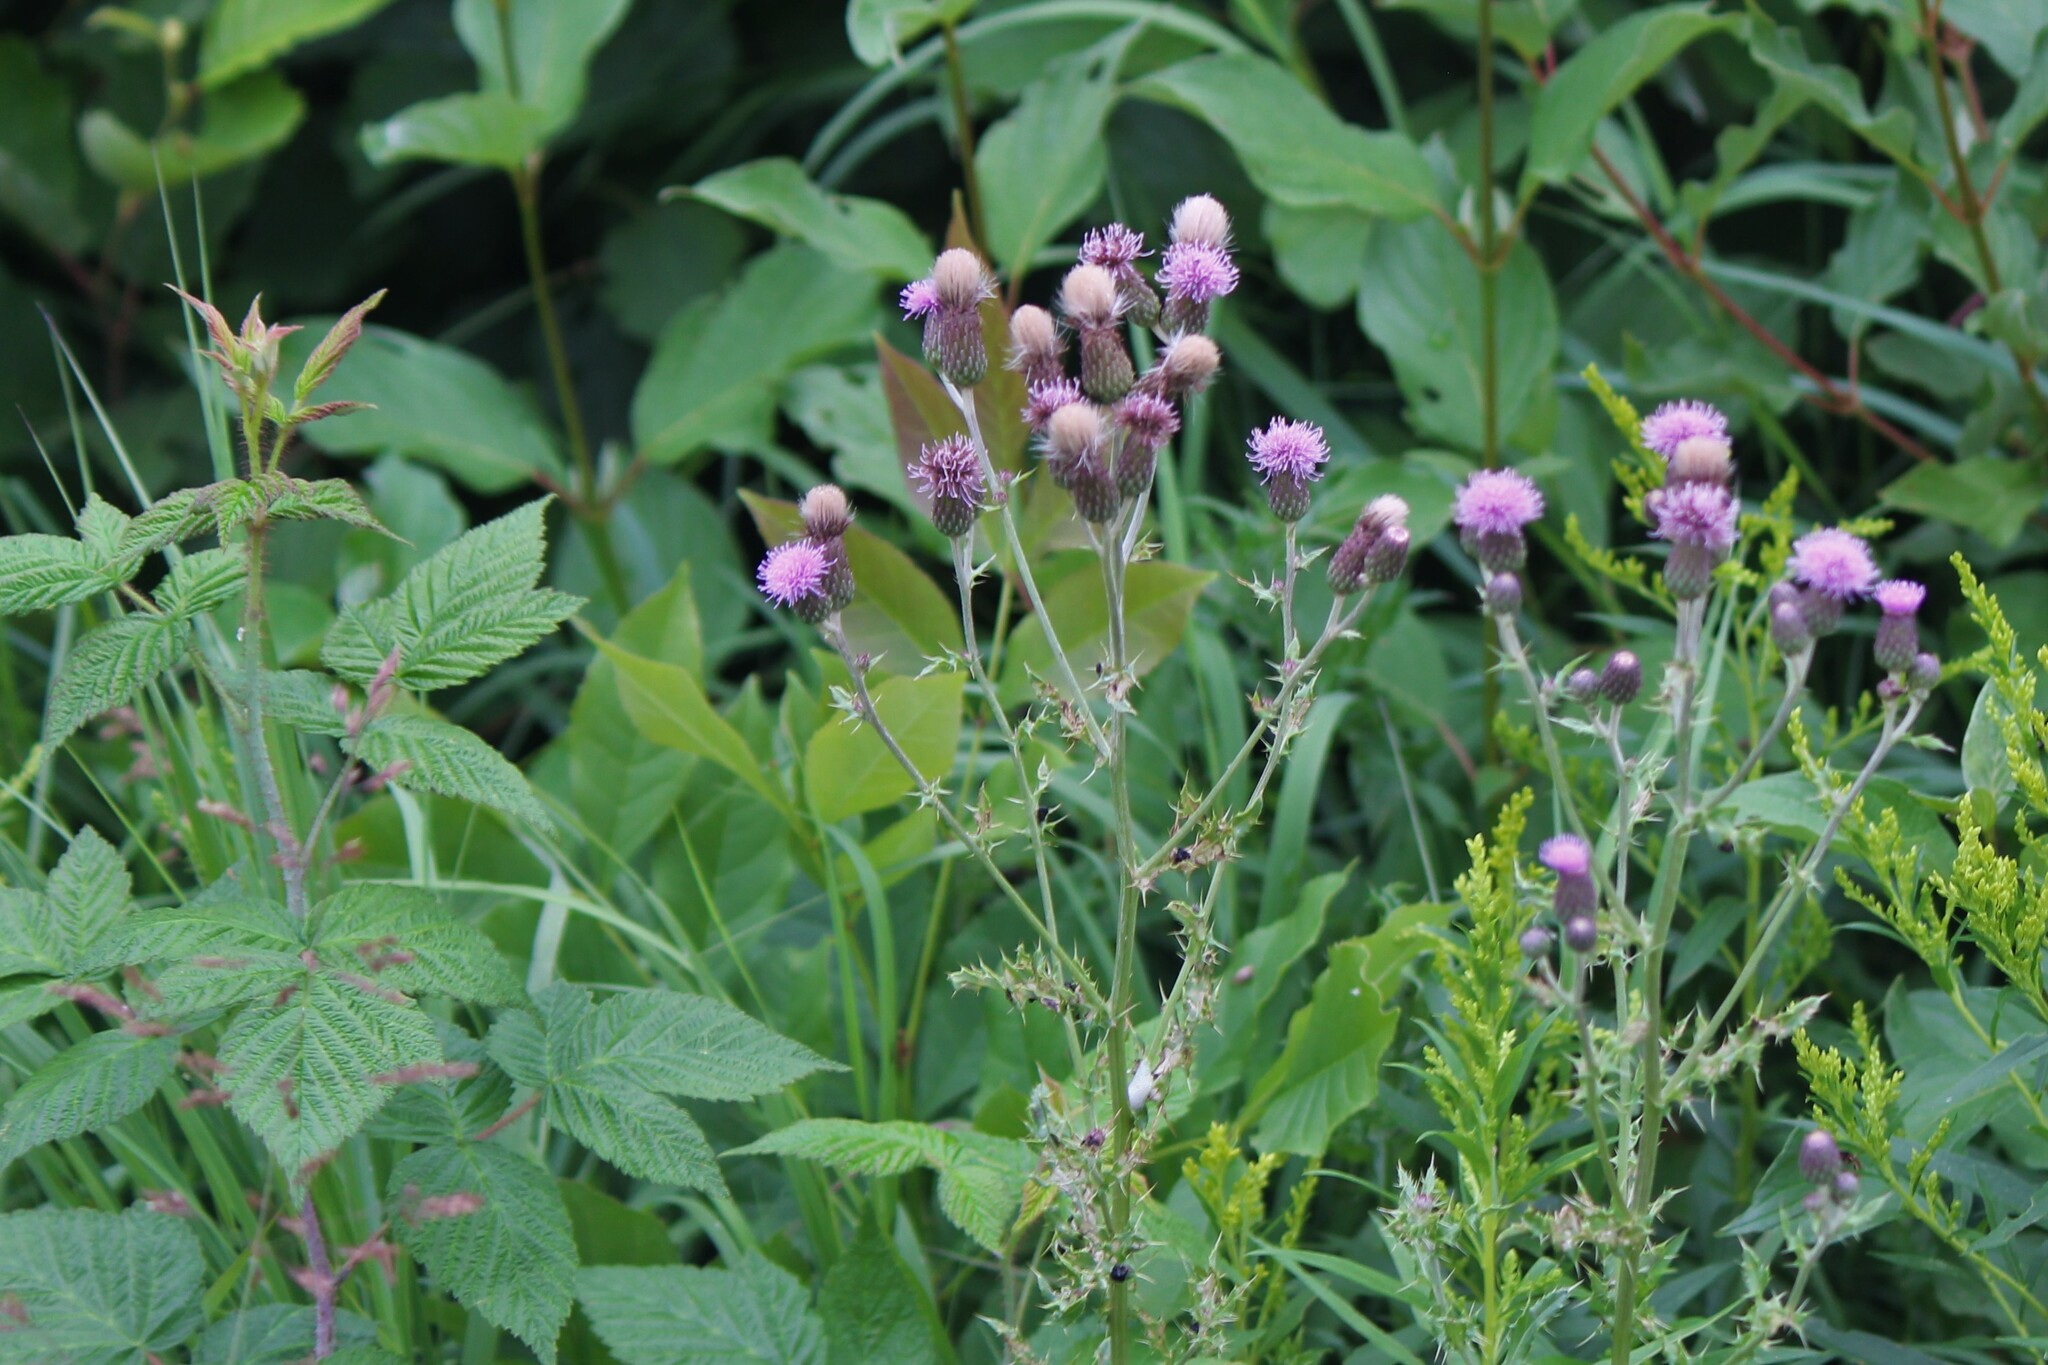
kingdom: Plantae
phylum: Tracheophyta
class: Magnoliopsida
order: Asterales
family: Asteraceae
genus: Cirsium
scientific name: Cirsium arvense
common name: Creeping thistle
